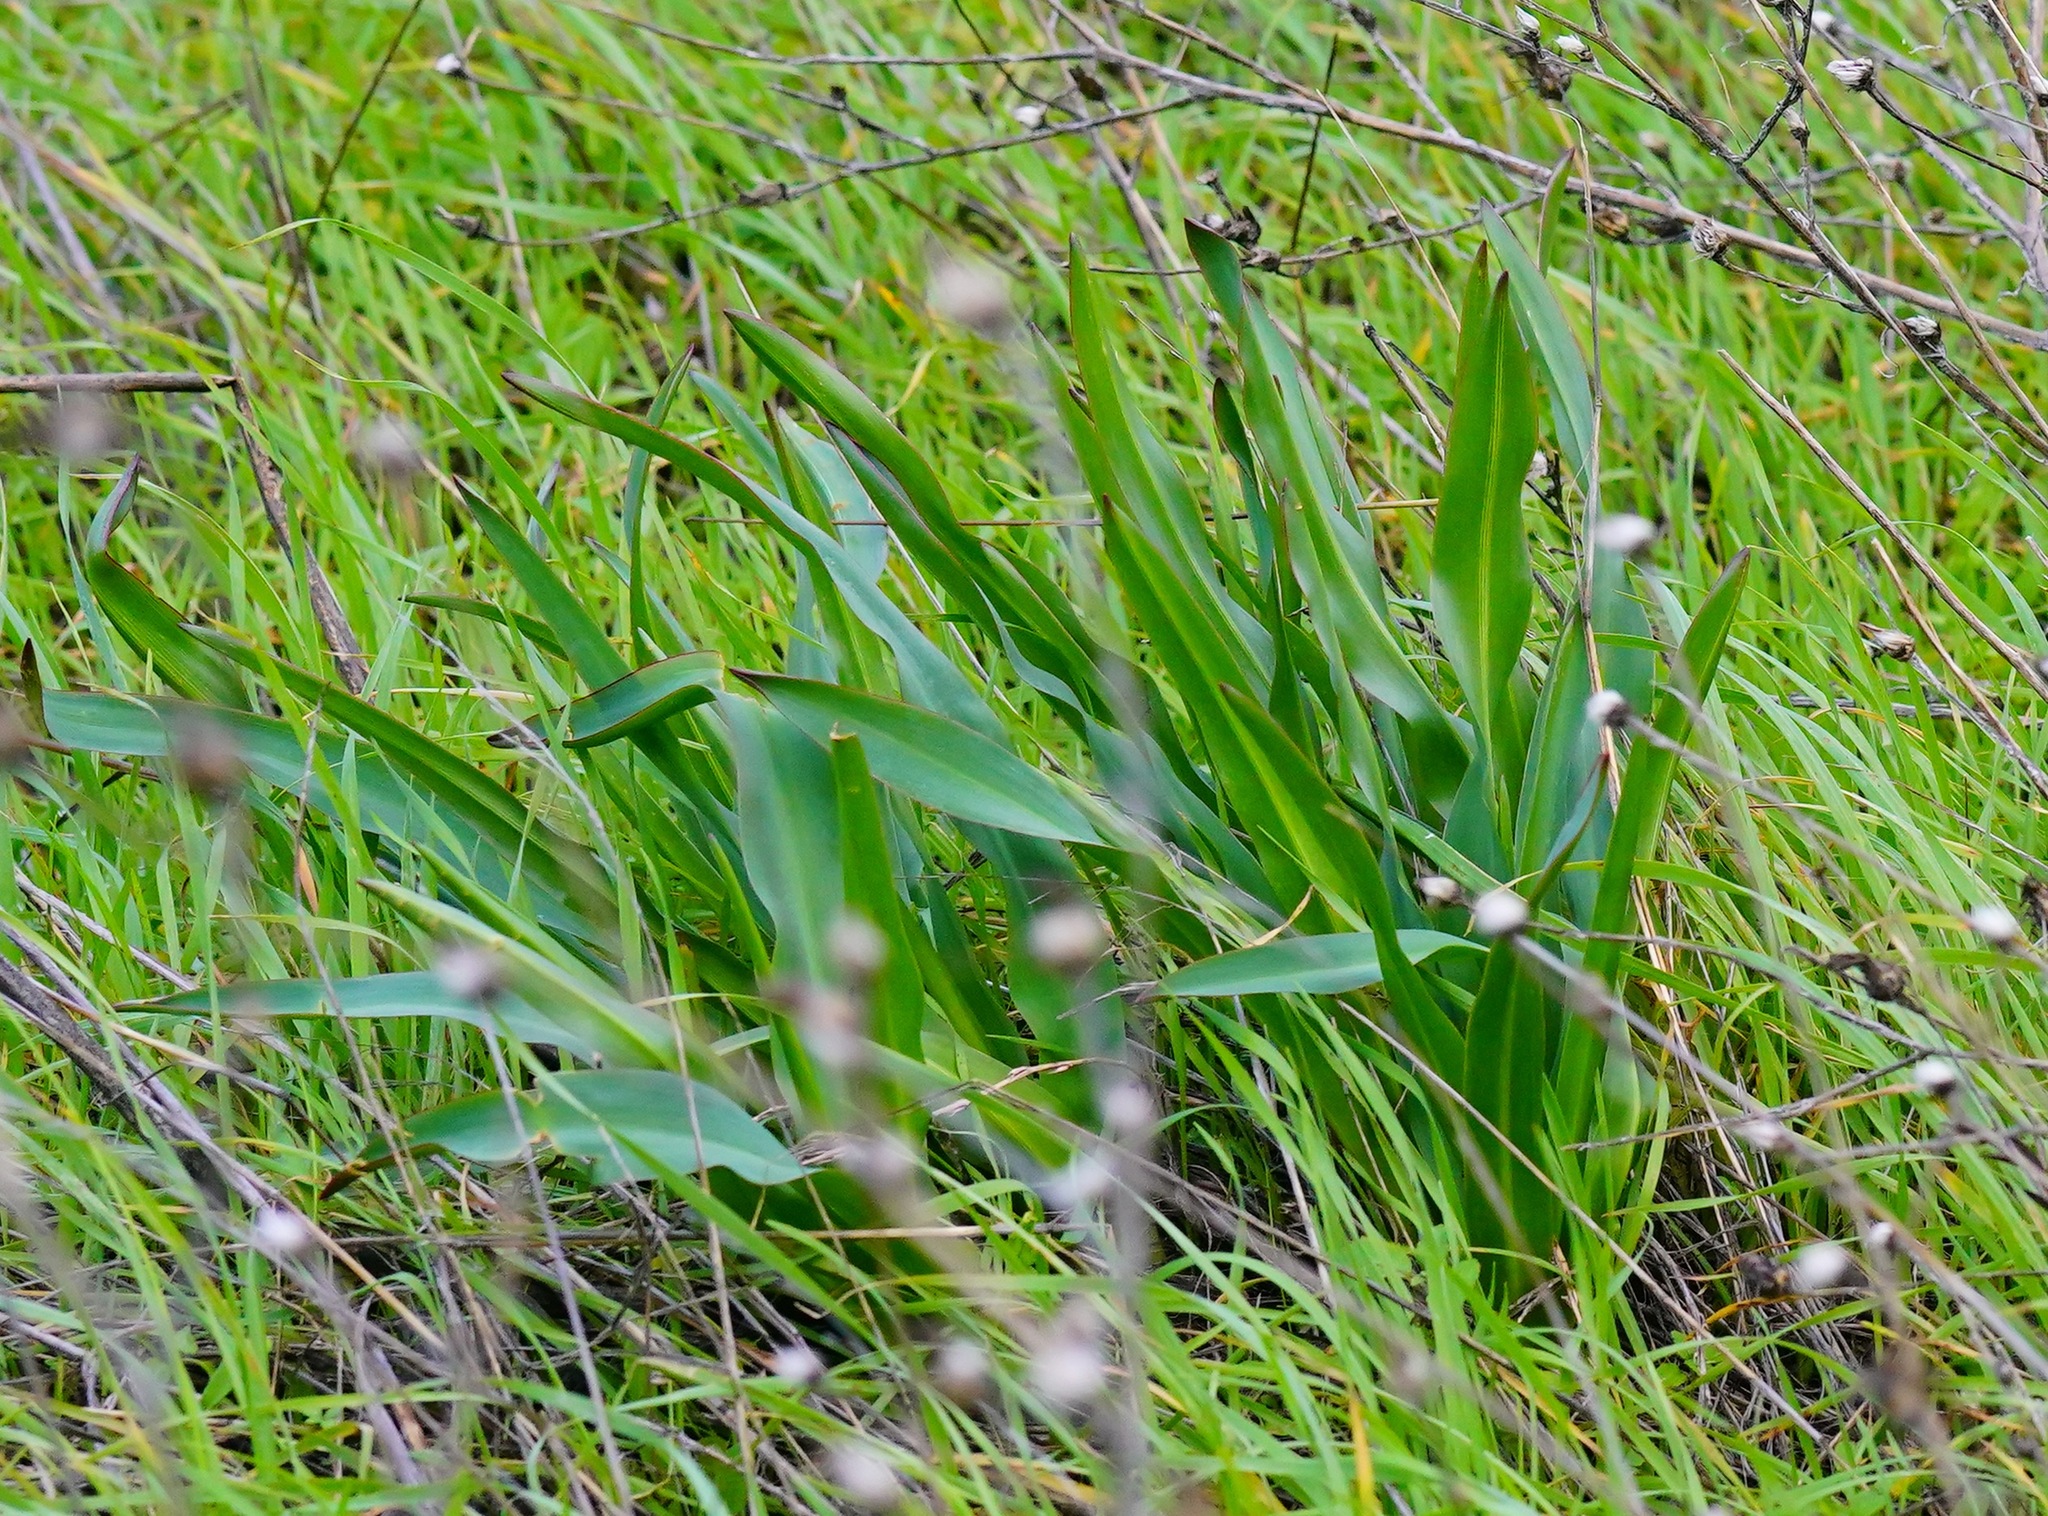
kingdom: Plantae
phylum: Tracheophyta
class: Liliopsida
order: Asparagales
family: Asparagaceae
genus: Chlorogalum
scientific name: Chlorogalum pomeridianum
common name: Amole
